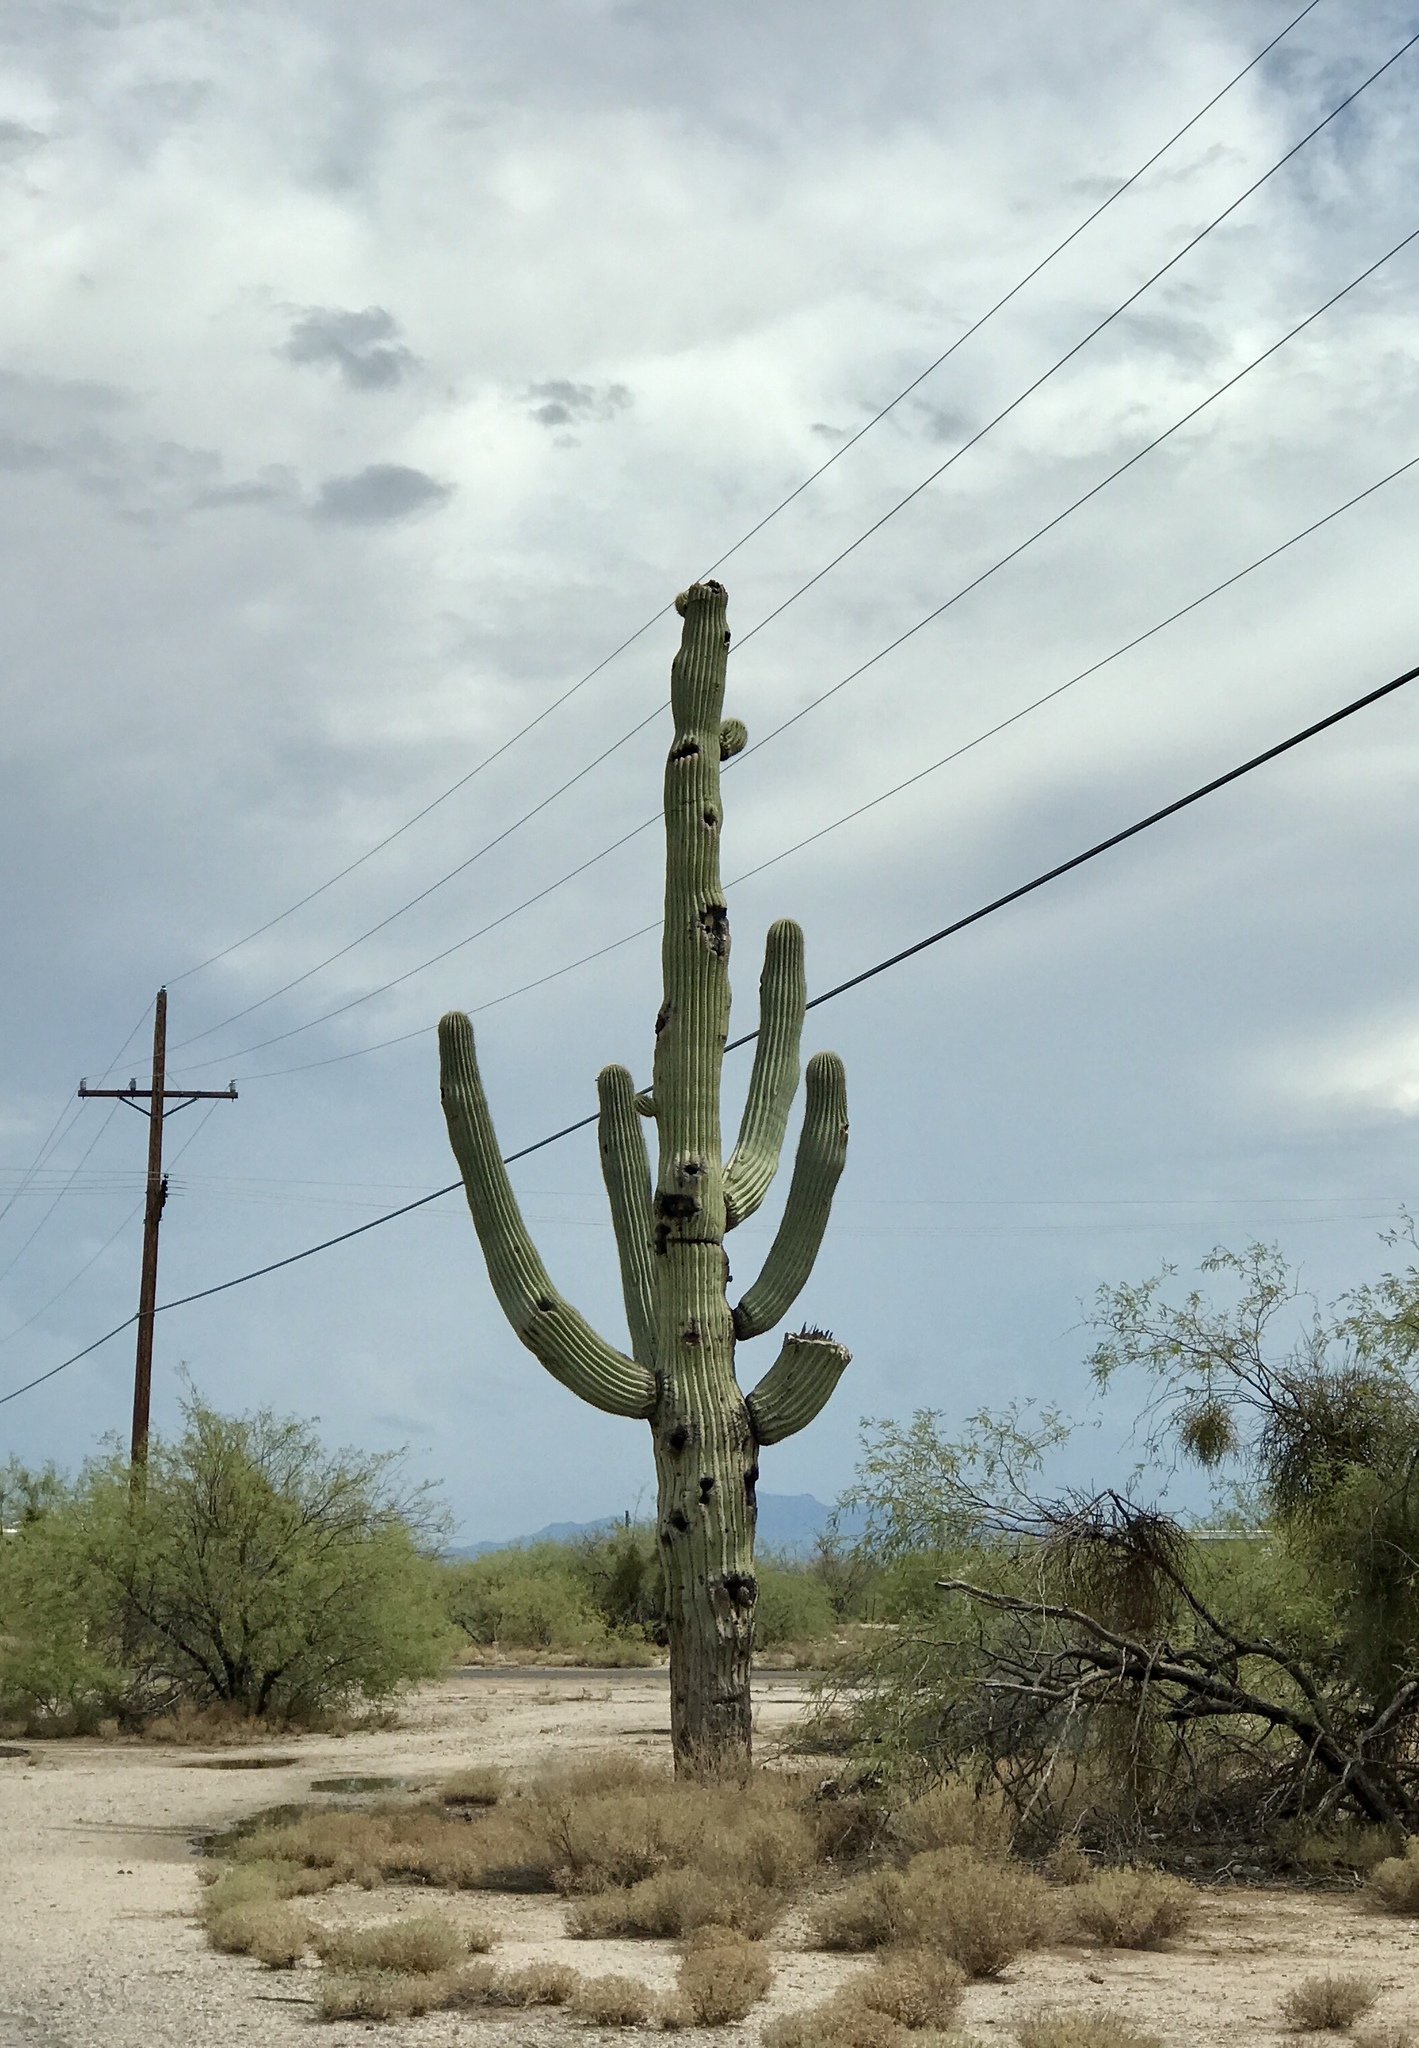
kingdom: Plantae
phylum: Tracheophyta
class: Magnoliopsida
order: Caryophyllales
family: Cactaceae
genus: Carnegiea
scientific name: Carnegiea gigantea
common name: Saguaro
